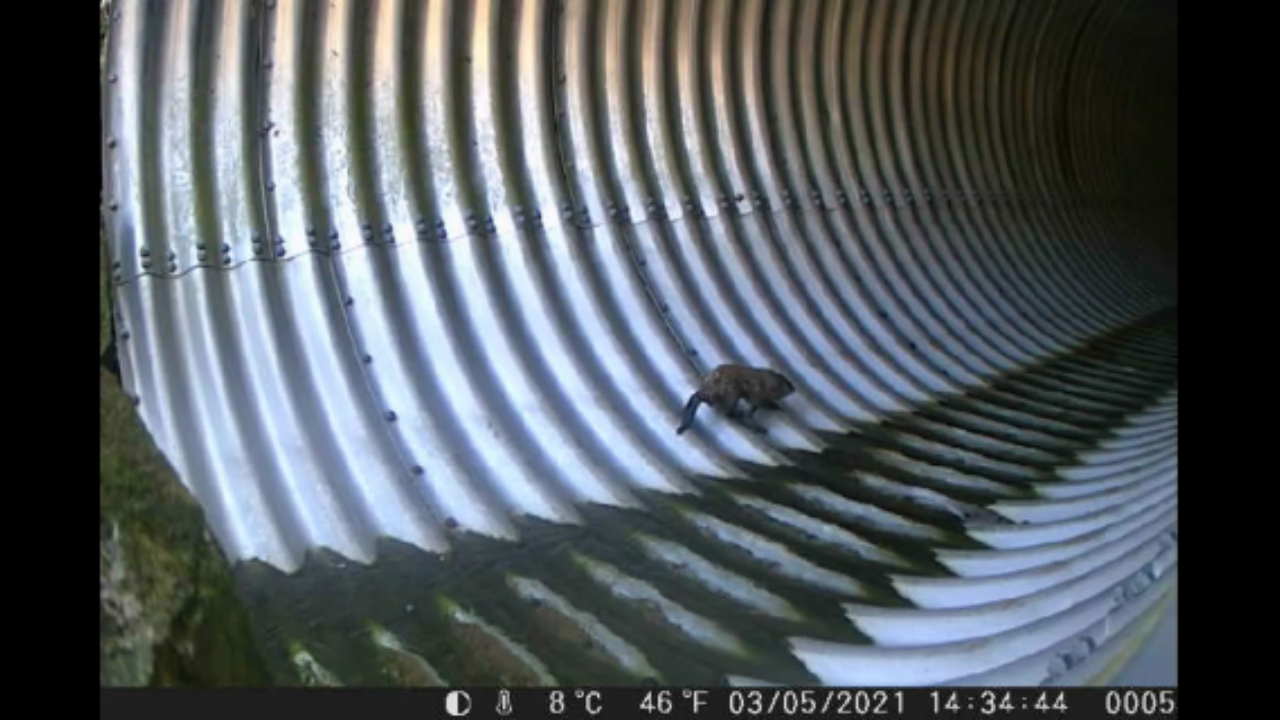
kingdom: Animalia
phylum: Chordata
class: Mammalia
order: Rodentia
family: Sciuridae
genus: Marmota
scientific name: Marmota monax
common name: Groundhog
